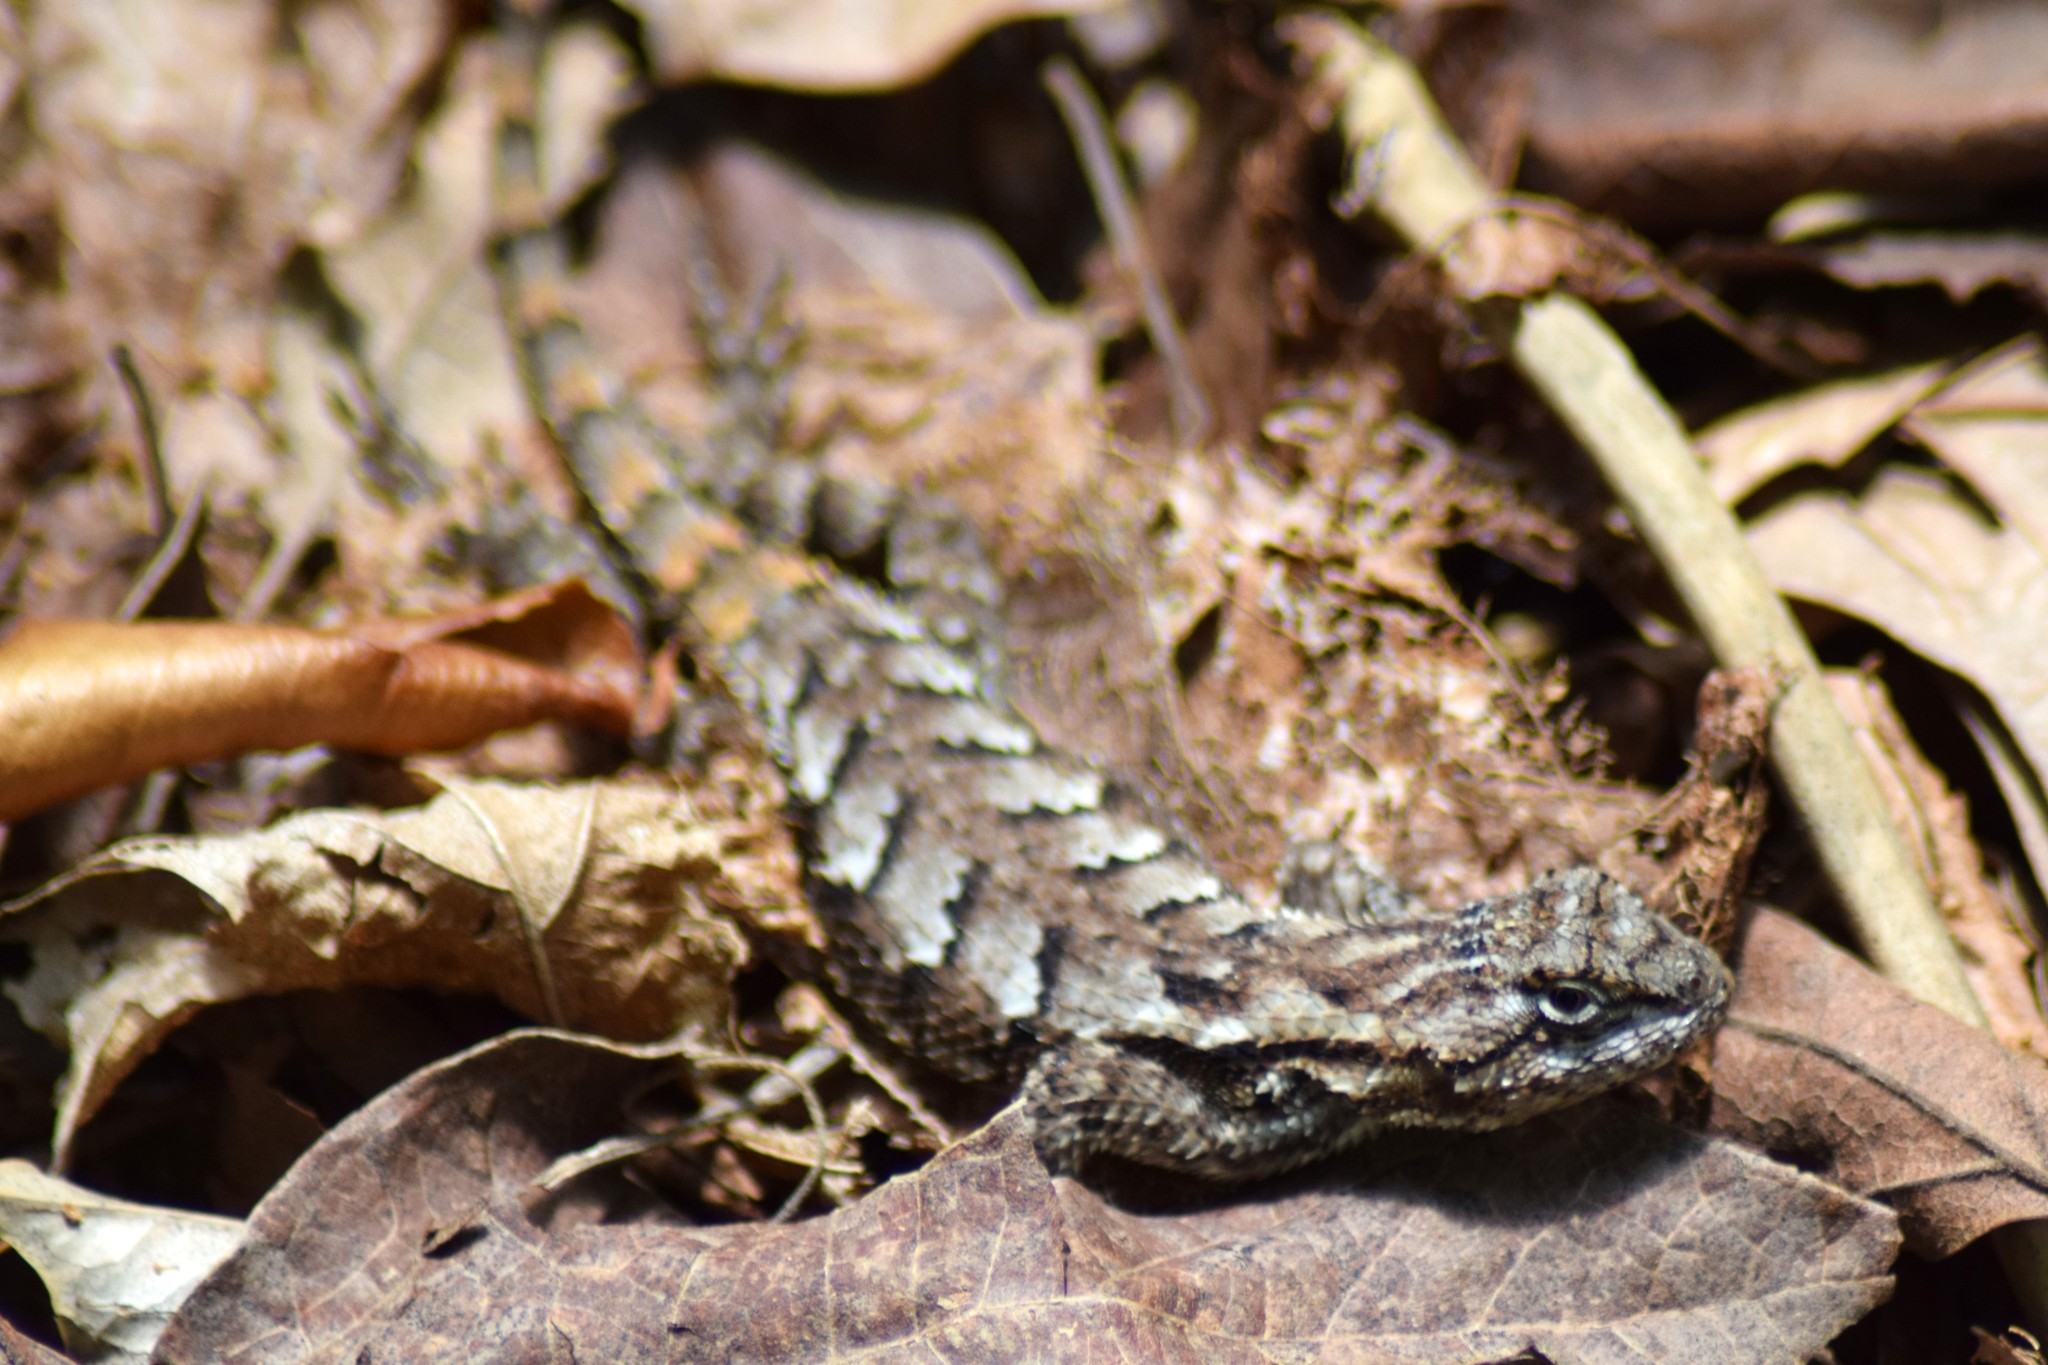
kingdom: Animalia
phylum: Chordata
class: Squamata
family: Phrynosomatidae
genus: Sceloporus
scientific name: Sceloporus undulatus
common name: Eastern fence lizard
